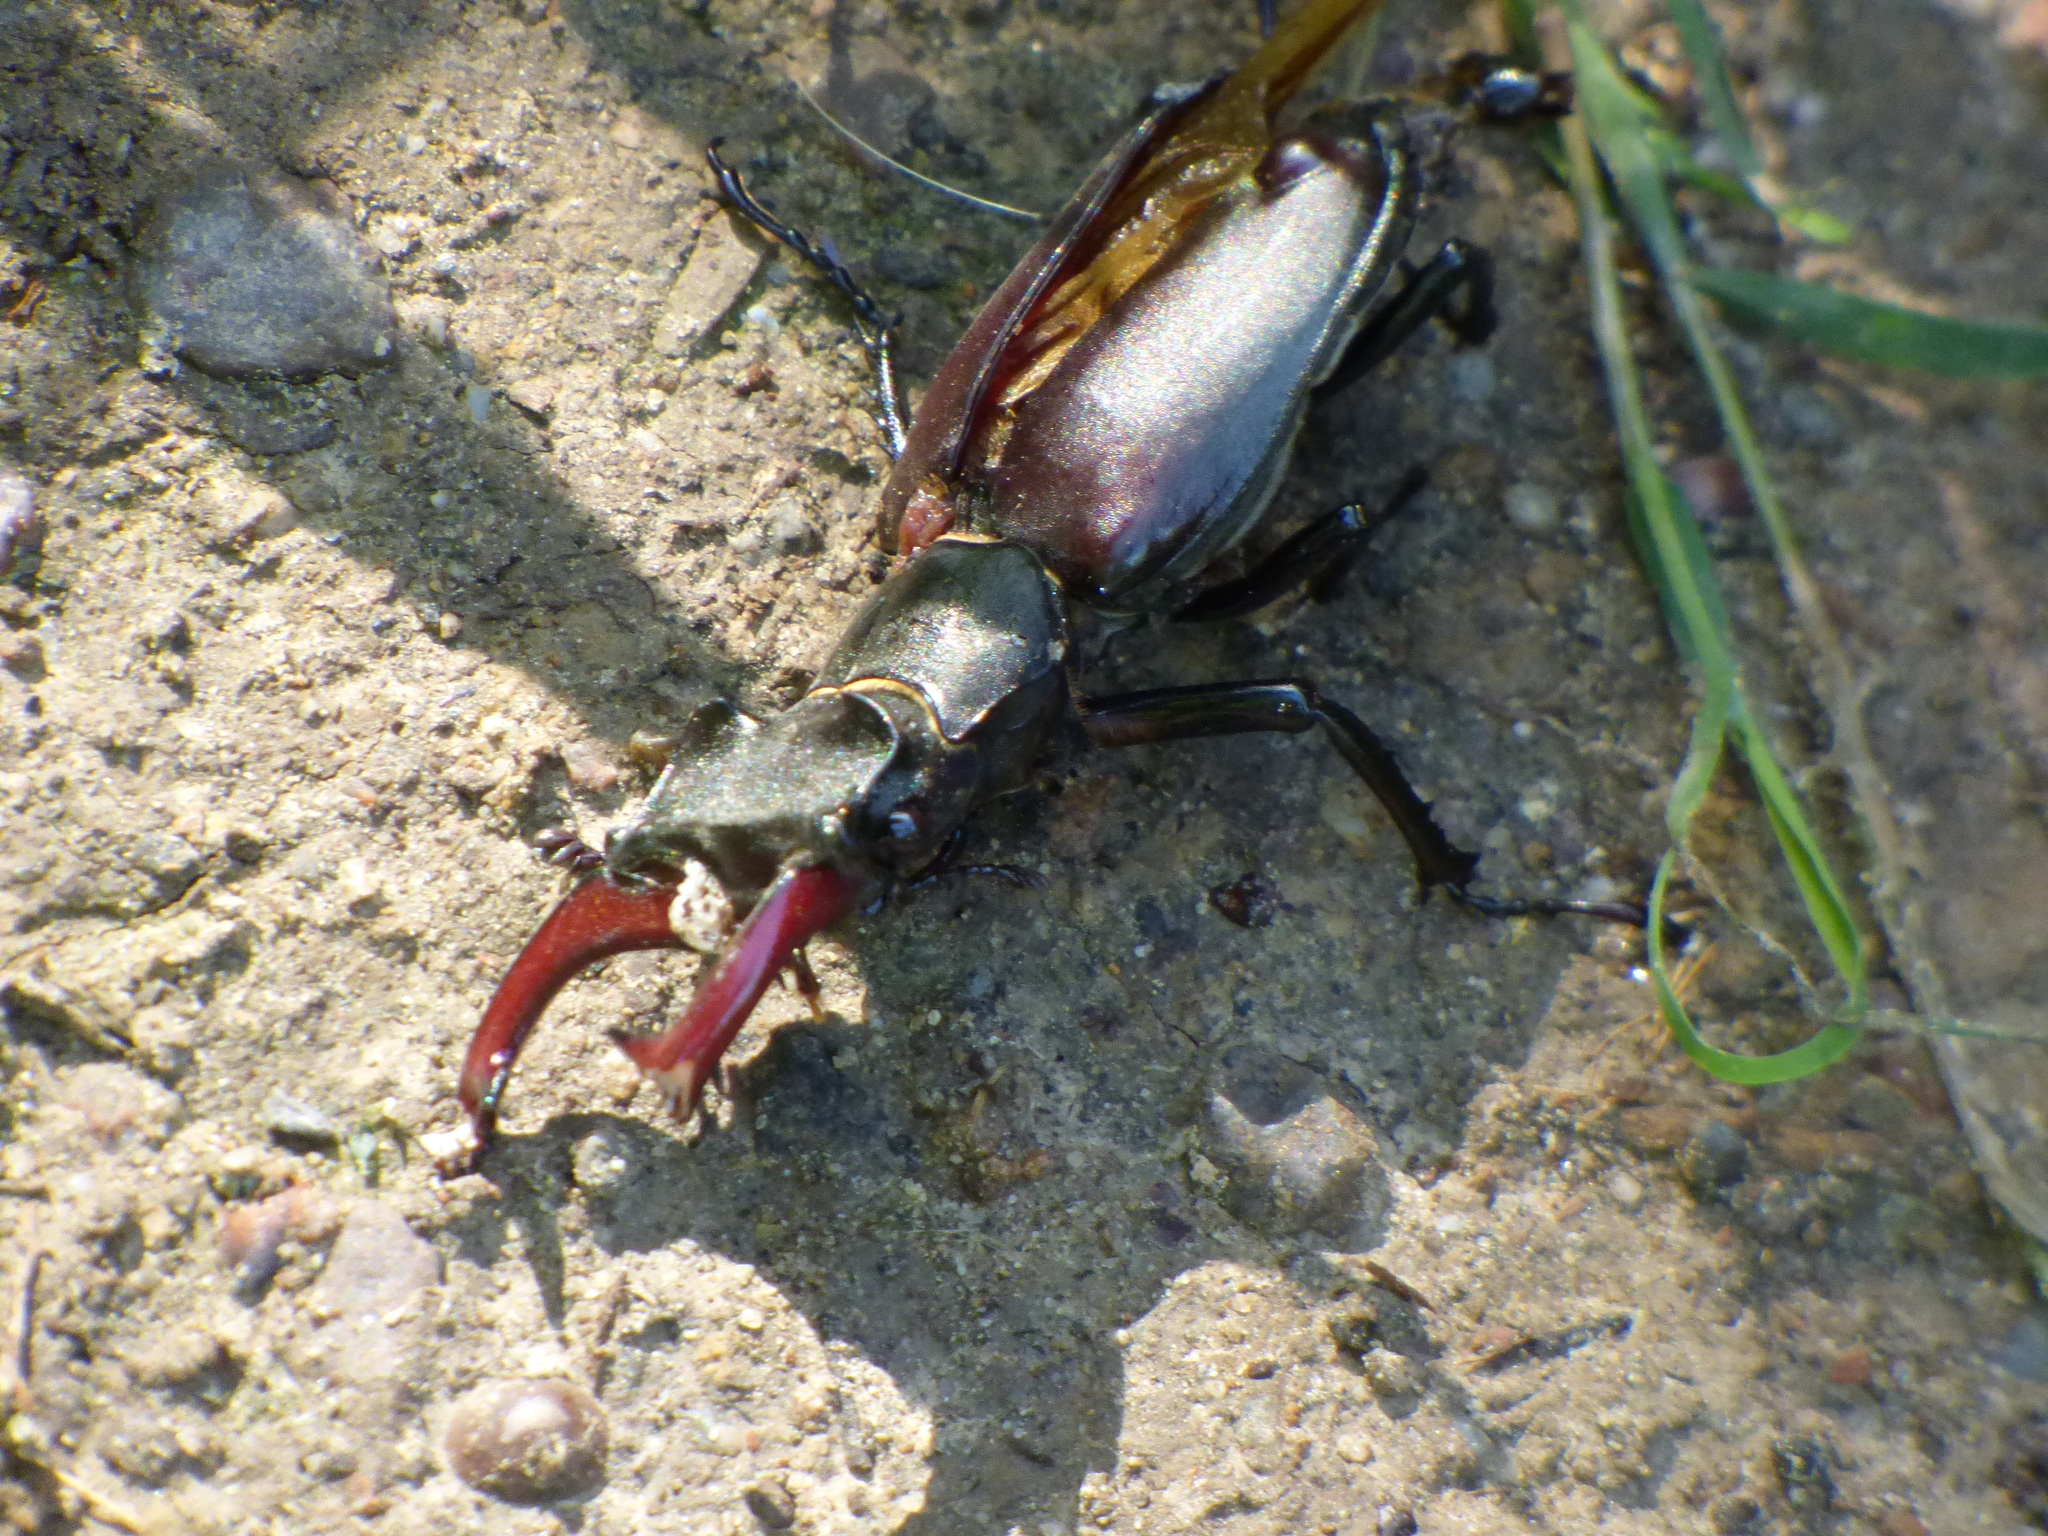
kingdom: Animalia
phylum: Arthropoda
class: Insecta
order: Coleoptera
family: Lucanidae
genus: Lucanus
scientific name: Lucanus cervus
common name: Stag beetle
